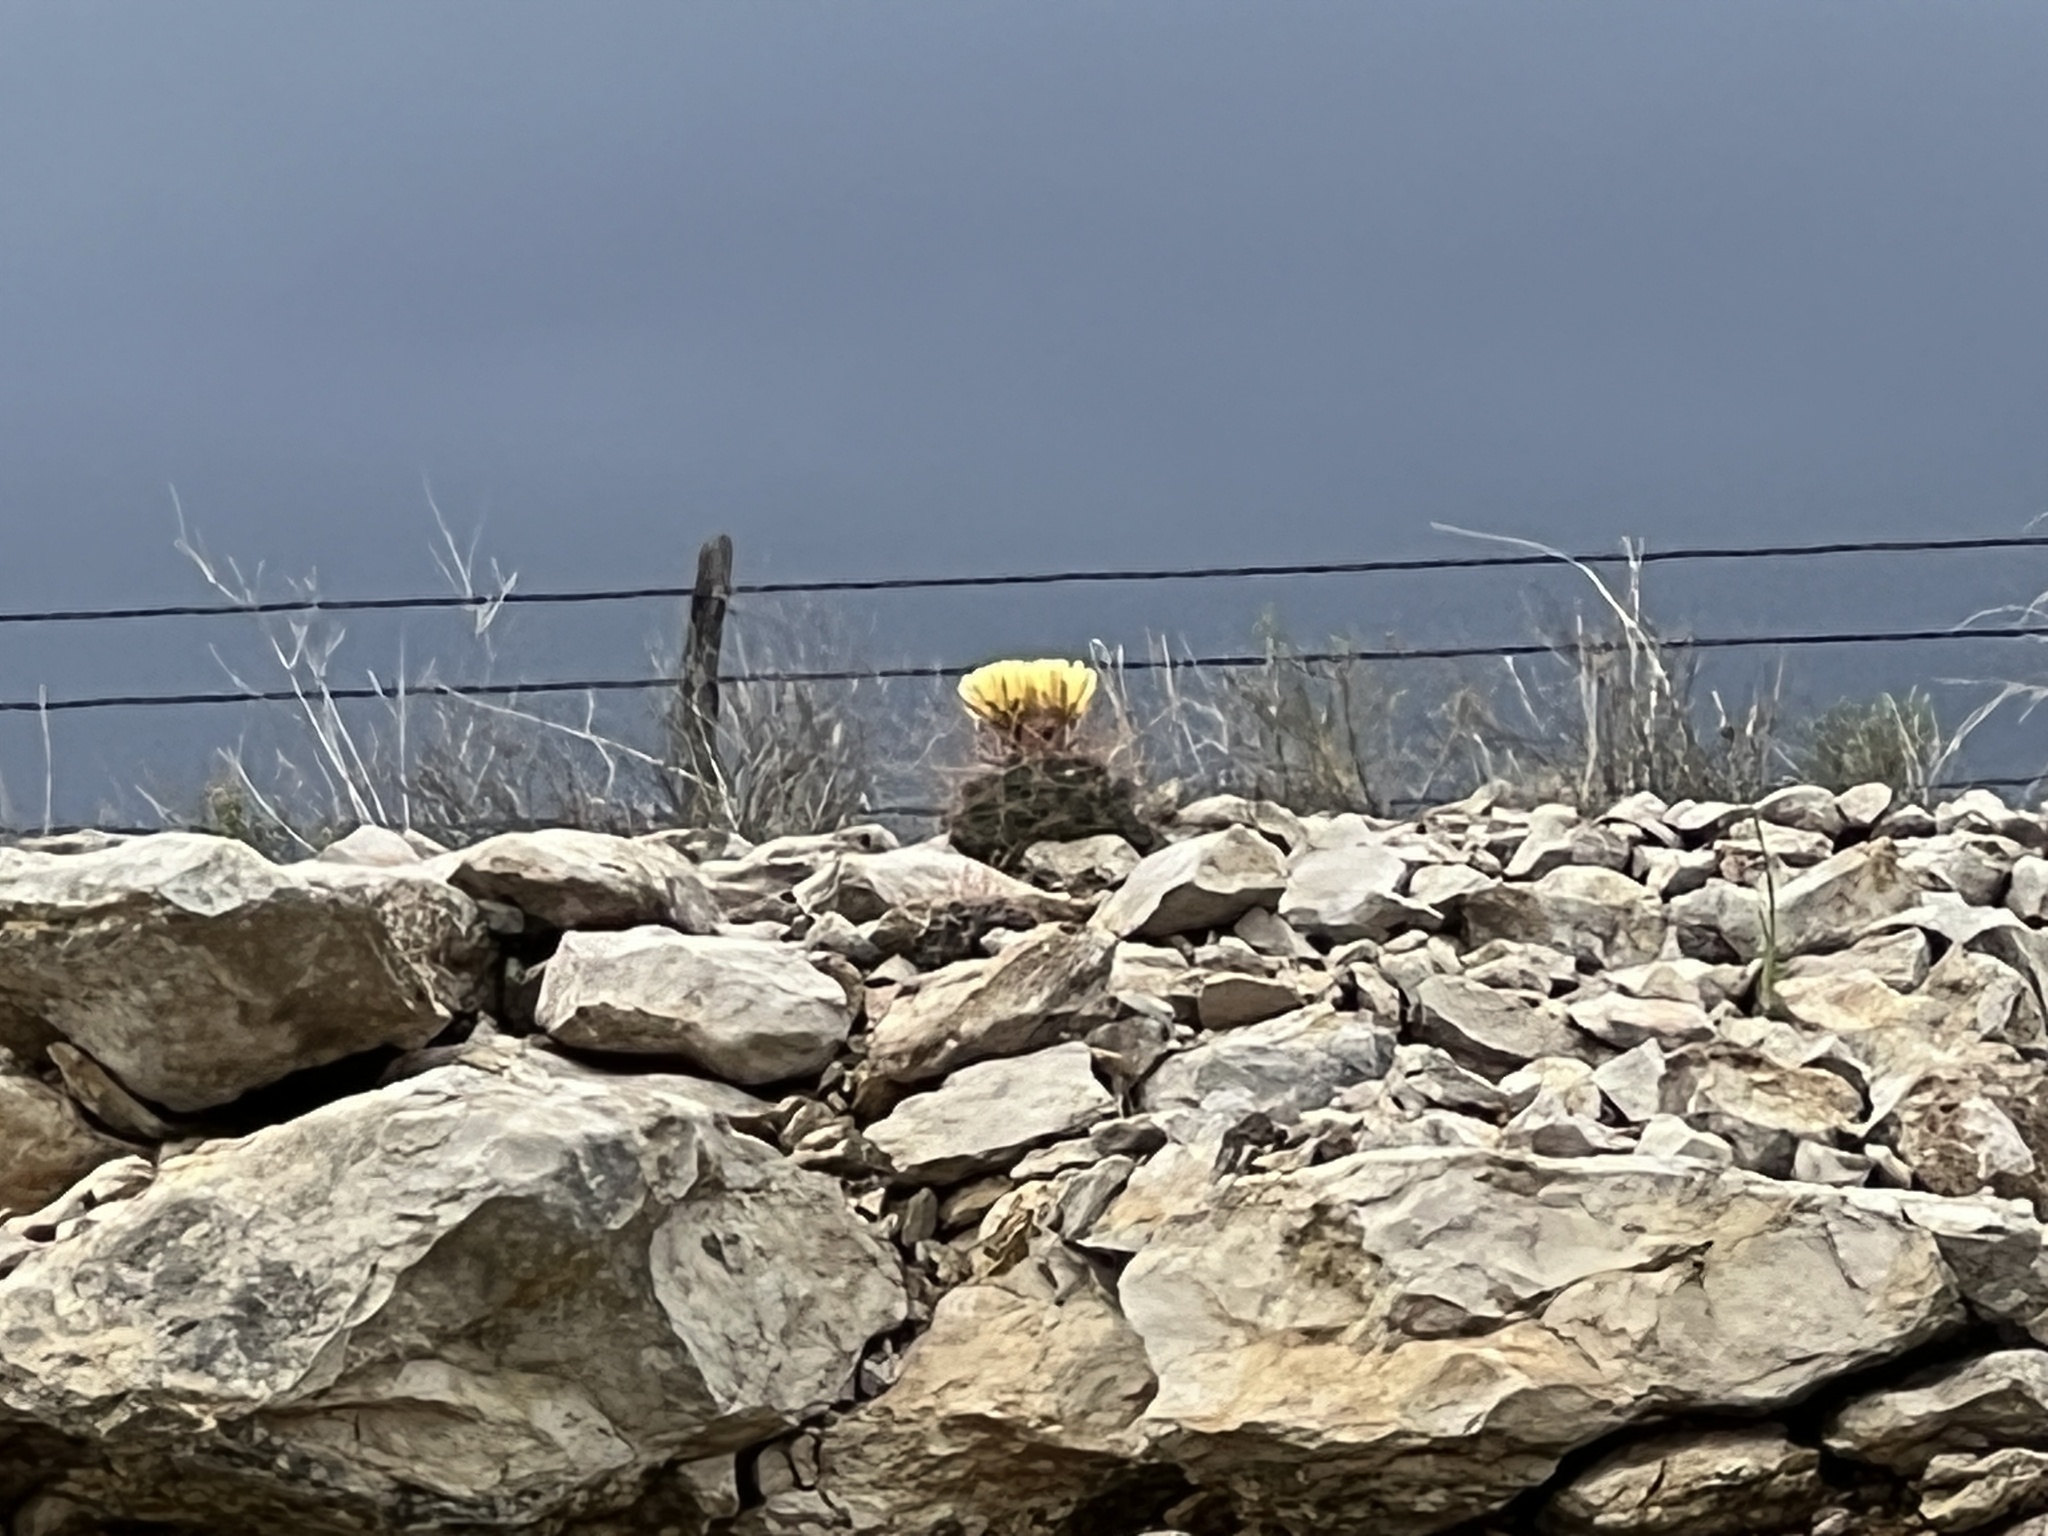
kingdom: Plantae
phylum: Tracheophyta
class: Magnoliopsida
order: Caryophyllales
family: Cactaceae
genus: Bisnaga
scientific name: Bisnaga hamatacantha
